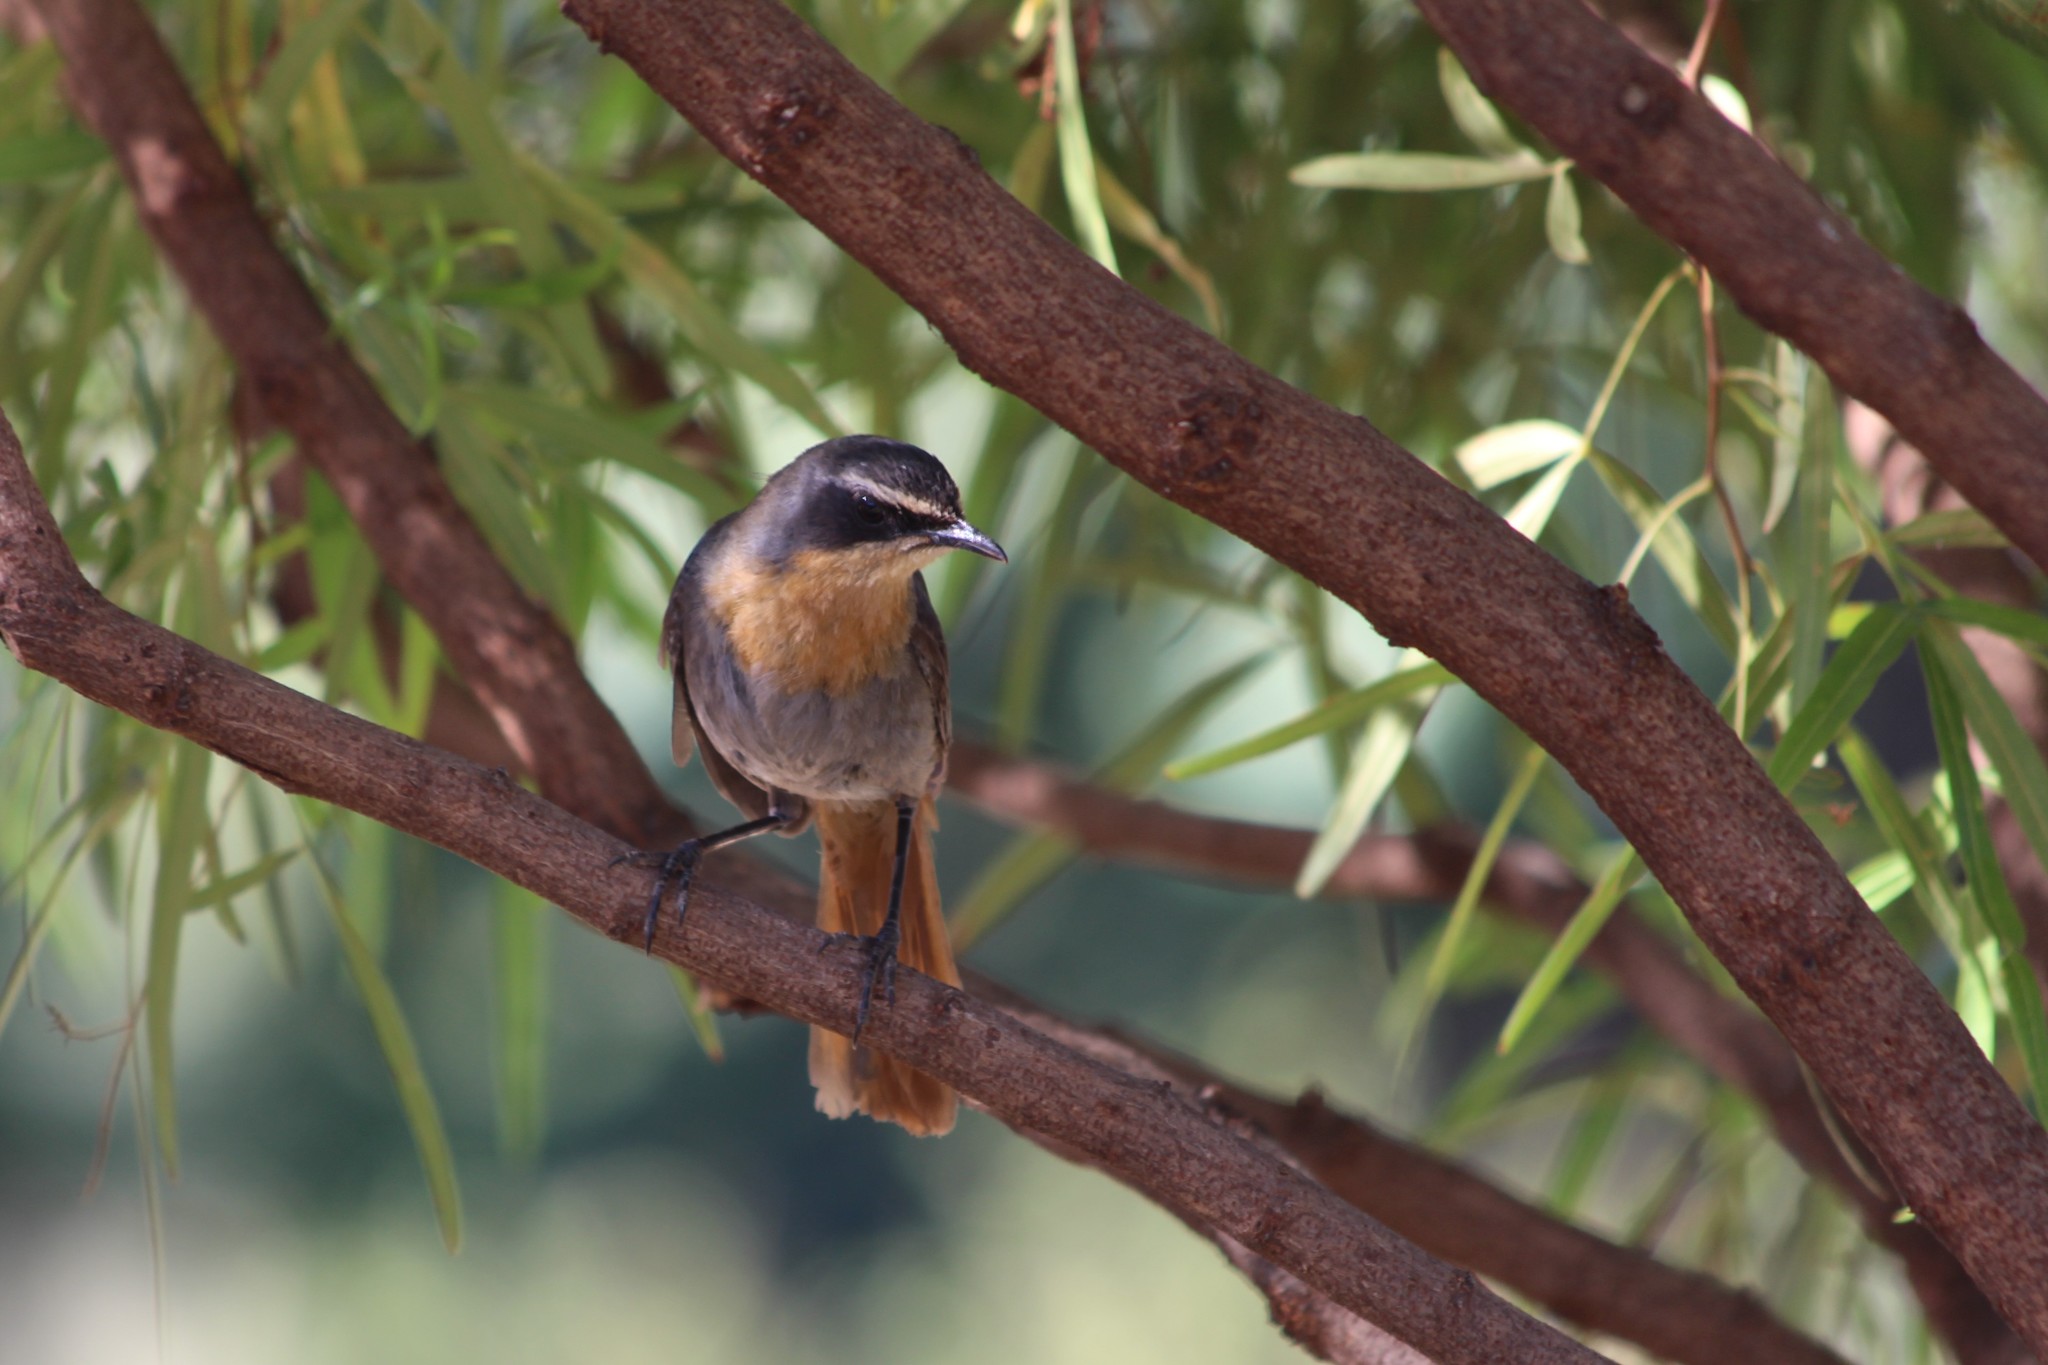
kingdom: Animalia
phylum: Chordata
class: Aves
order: Passeriformes
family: Muscicapidae
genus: Cossypha
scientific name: Cossypha caffra
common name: Cape robin-chat
